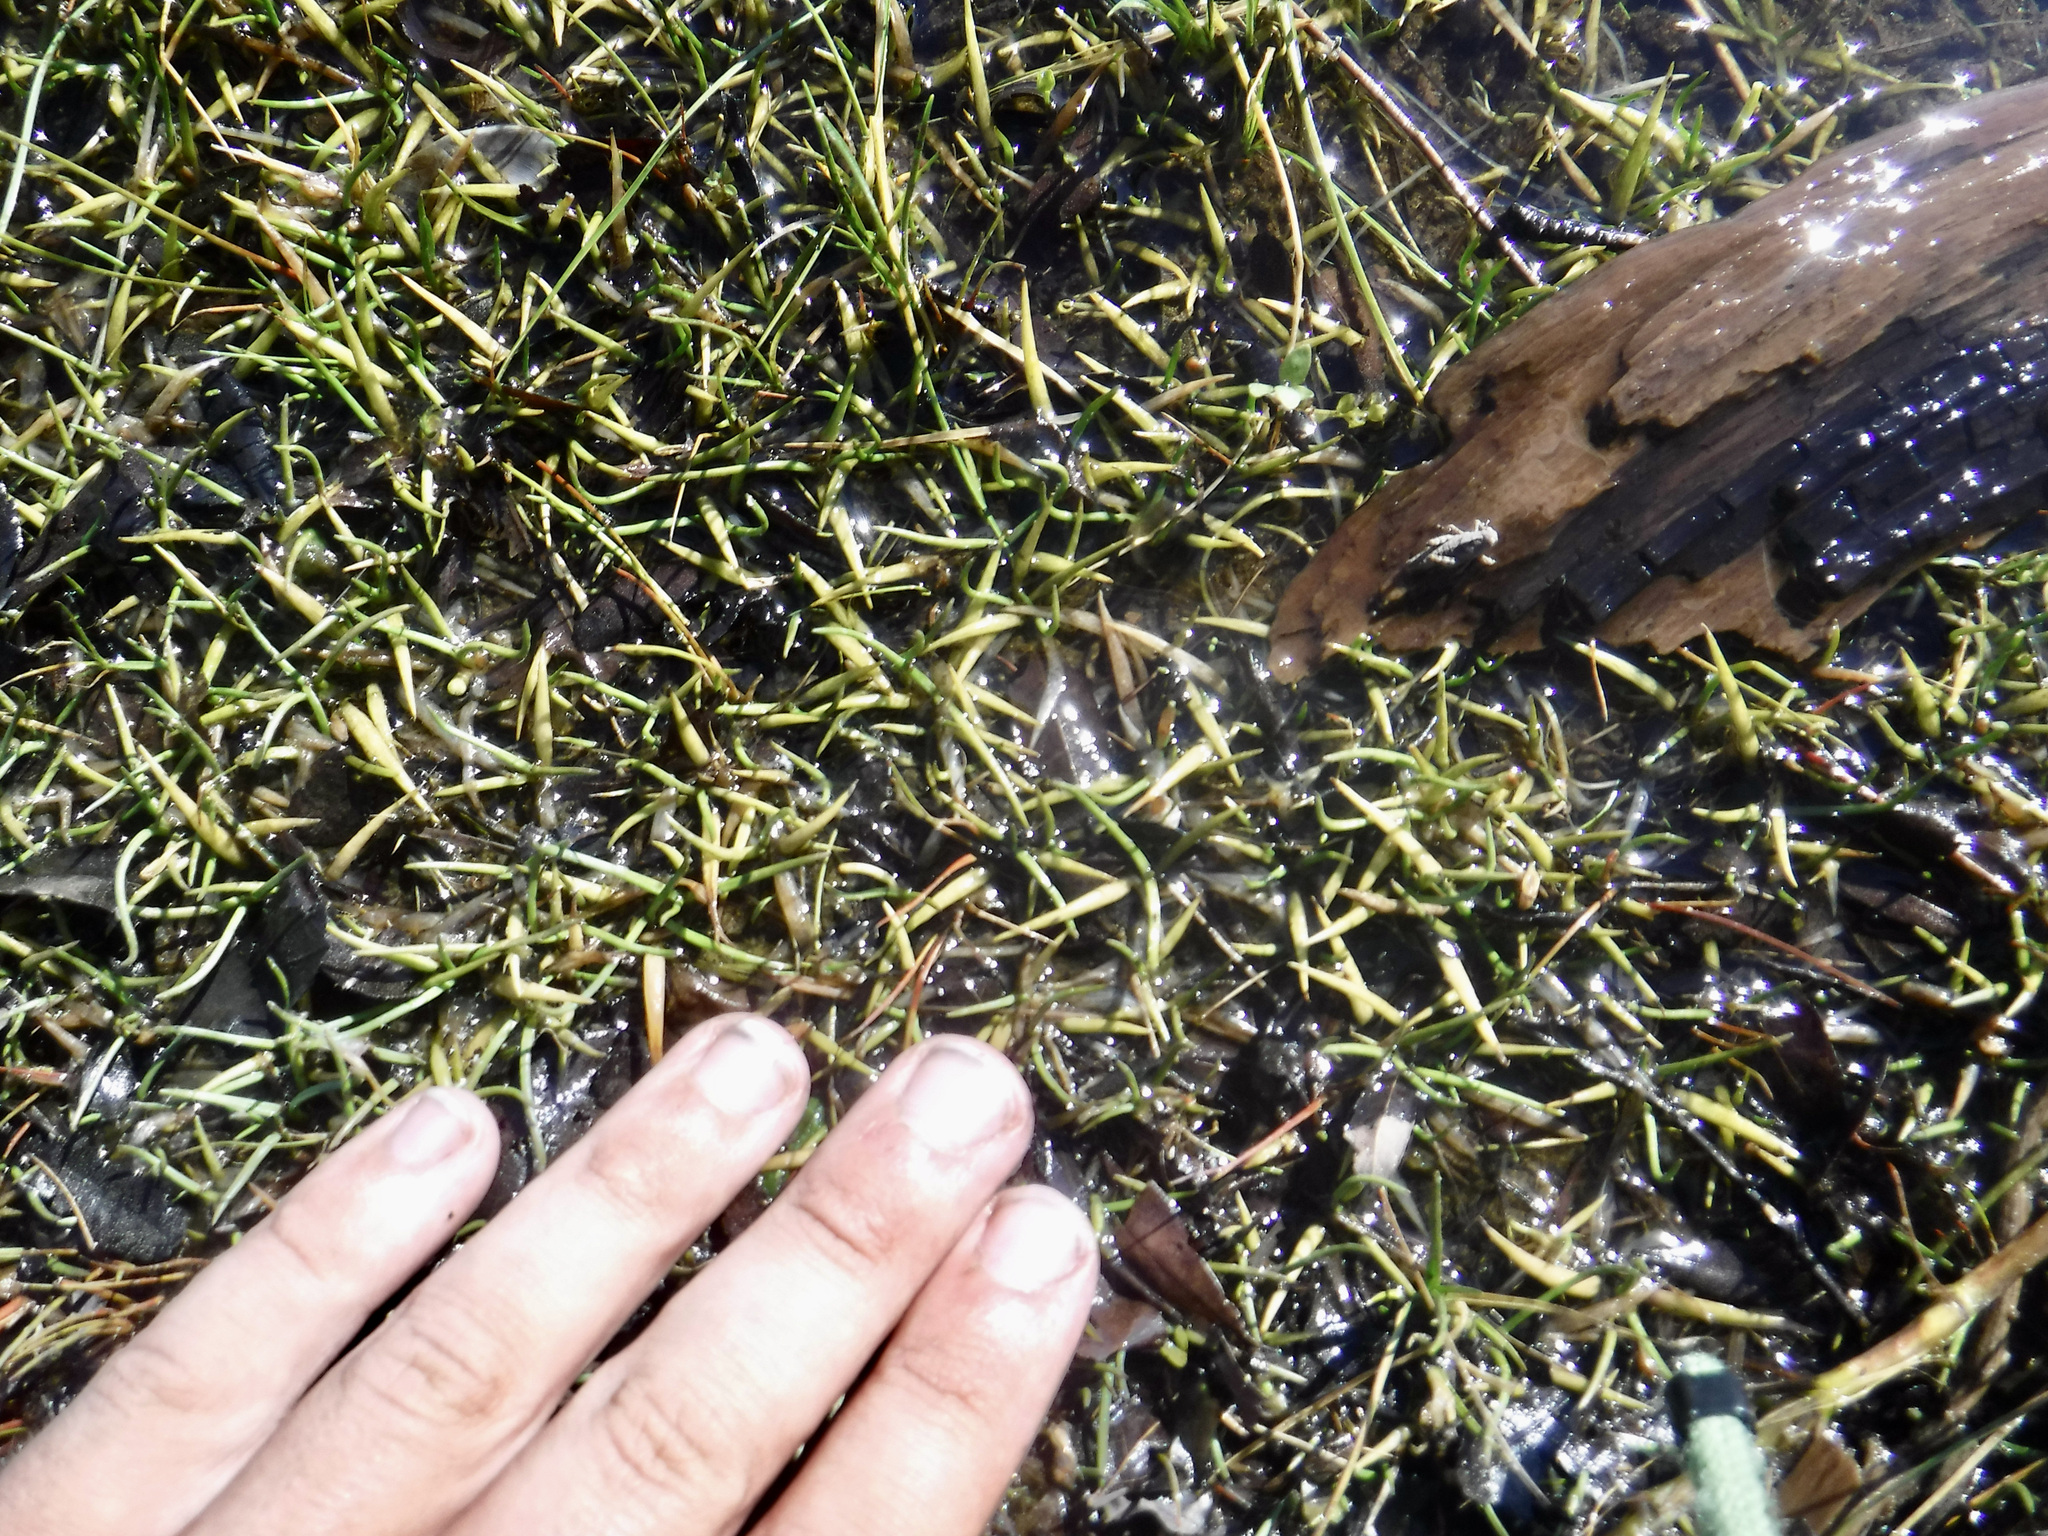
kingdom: Plantae
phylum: Tracheophyta
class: Magnoliopsida
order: Lamiales
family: Plantaginaceae
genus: Littorella
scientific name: Littorella americana
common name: American littorella
